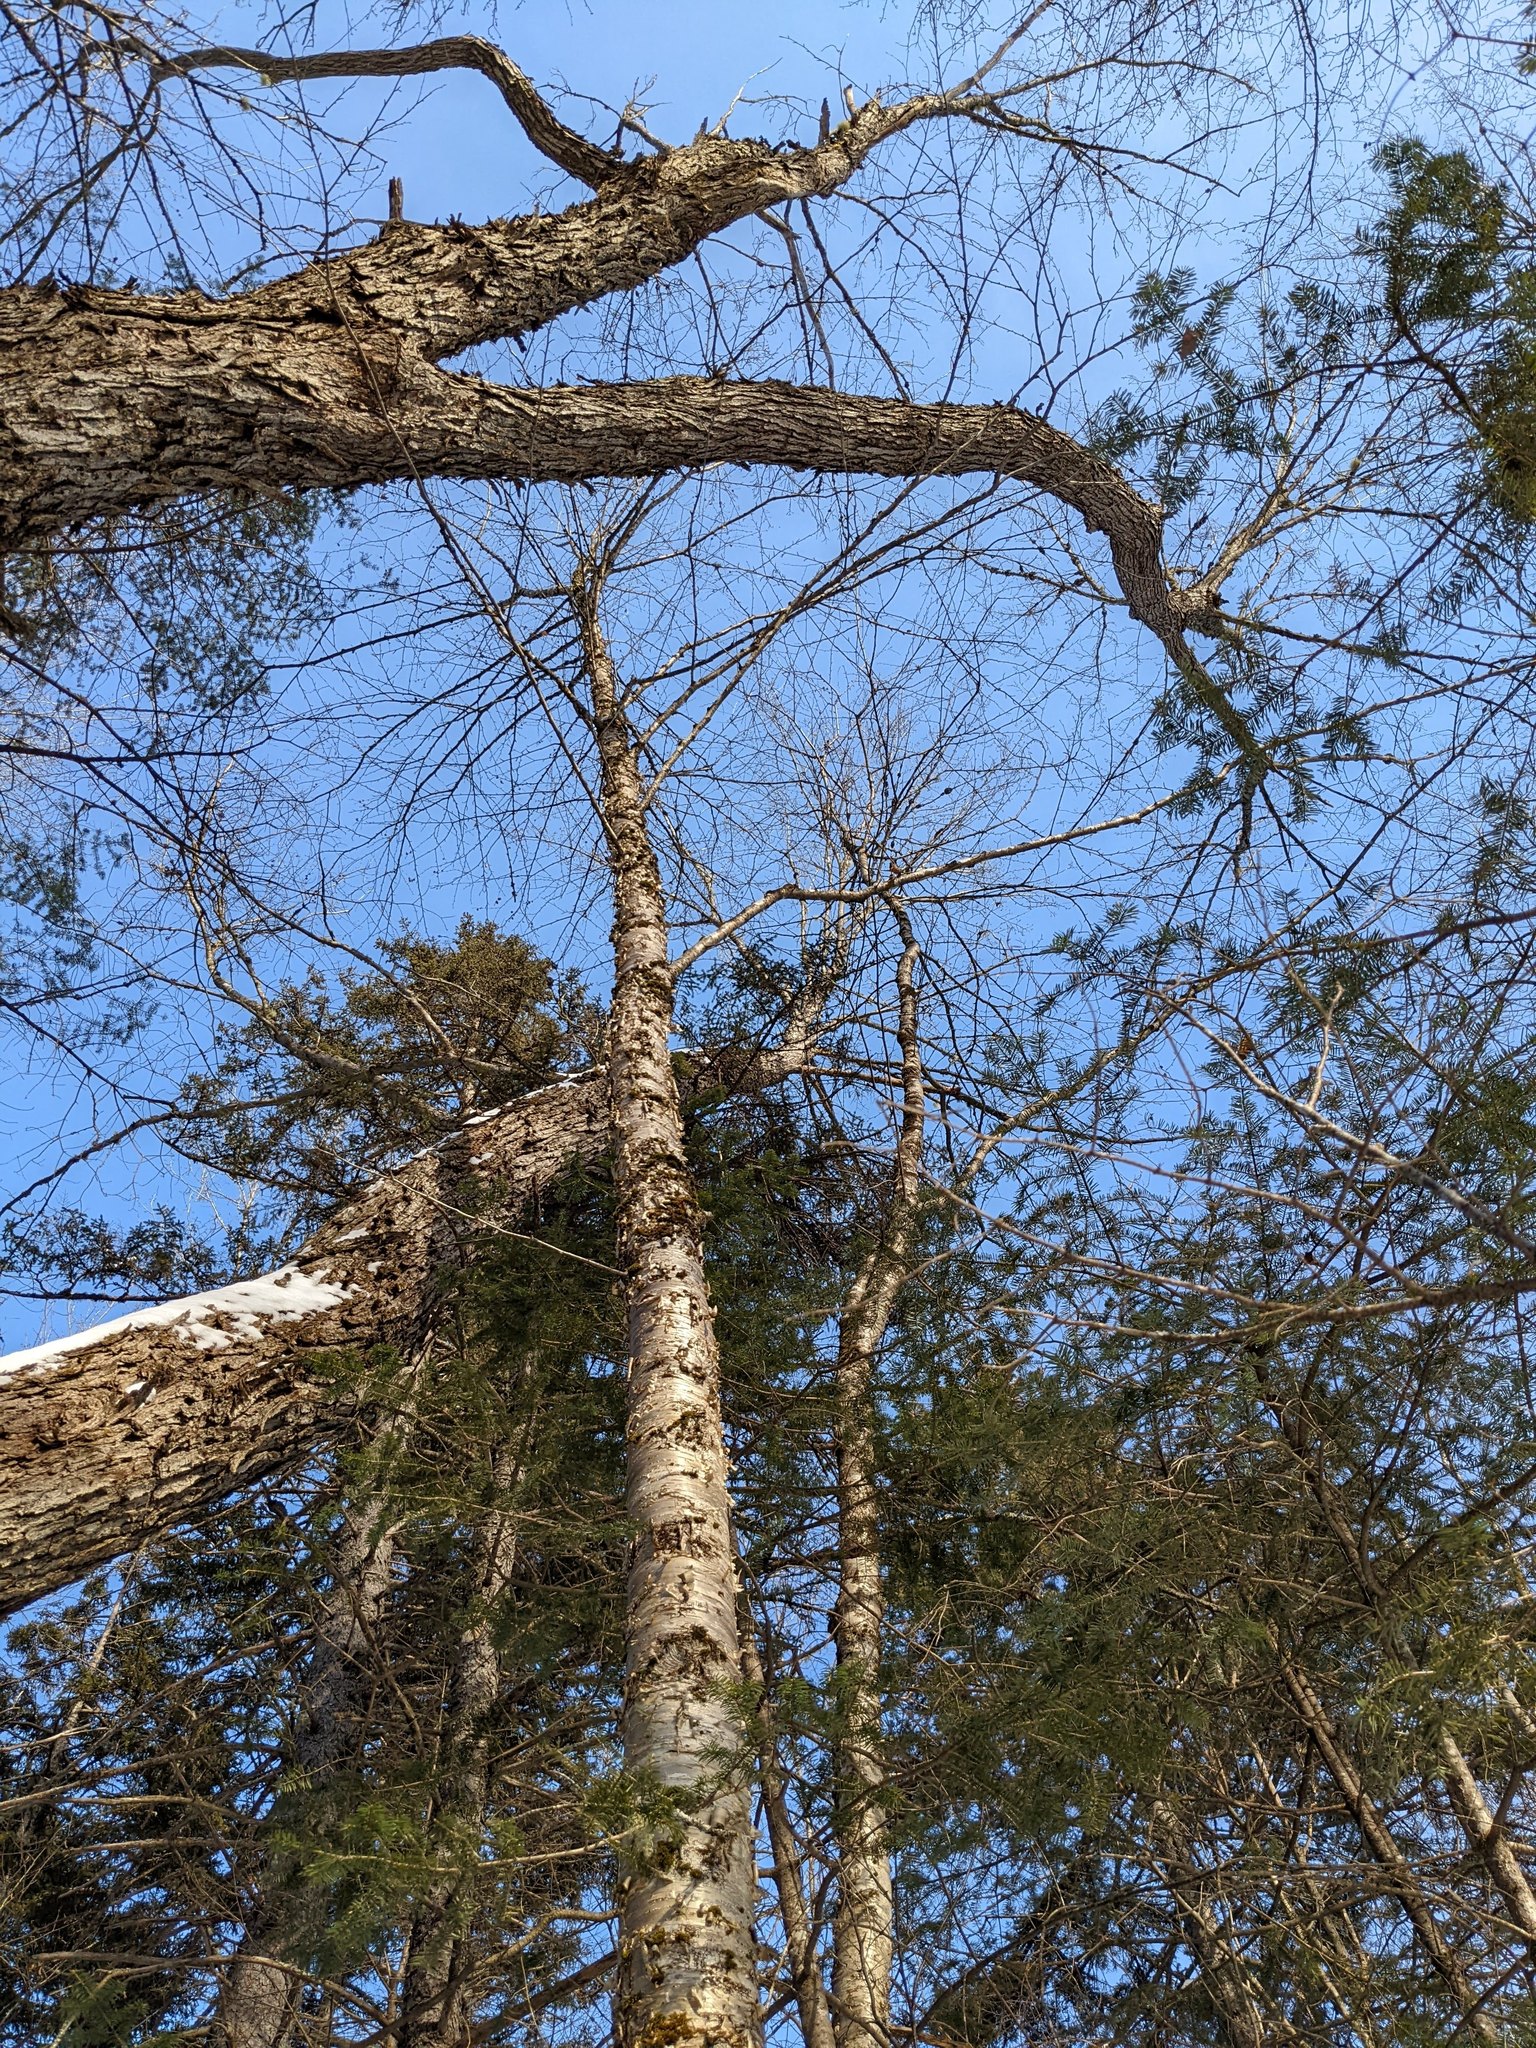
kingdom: Plantae
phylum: Tracheophyta
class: Magnoliopsida
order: Fagales
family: Betulaceae
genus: Betula
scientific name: Betula alleghaniensis
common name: Yellow birch
